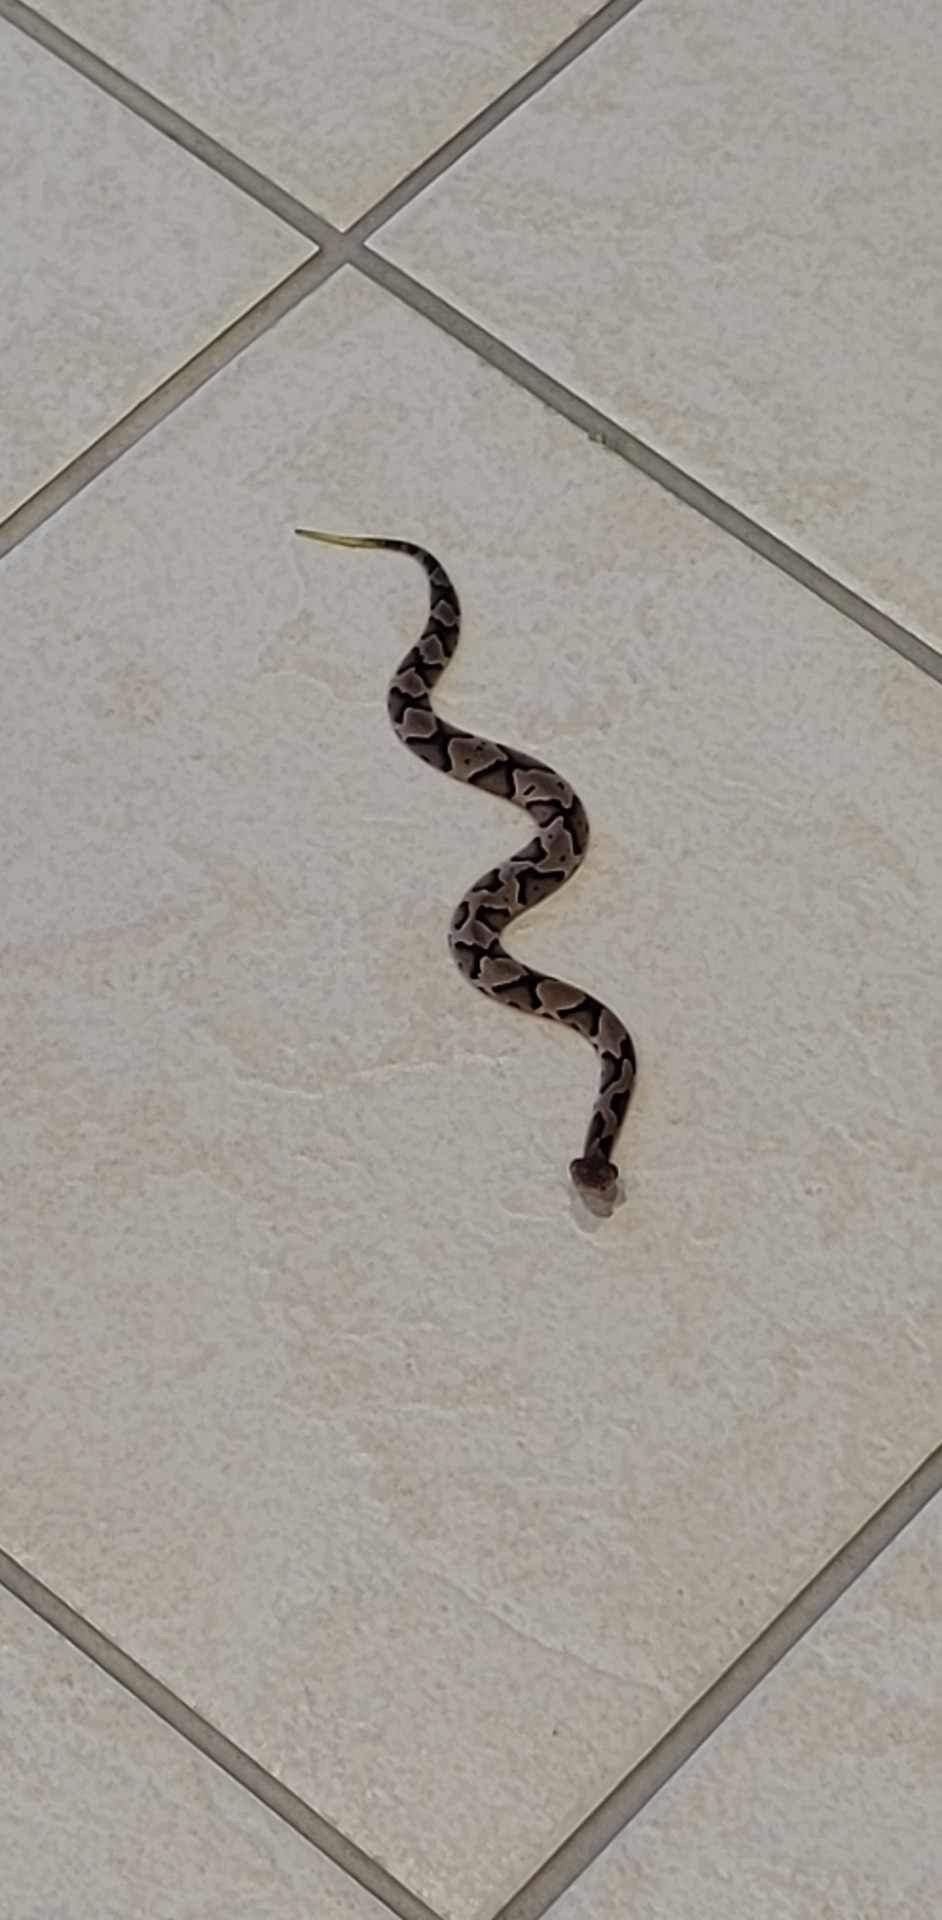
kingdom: Animalia
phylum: Chordata
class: Squamata
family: Viperidae
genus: Agkistrodon
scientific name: Agkistrodon contortrix
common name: Northern copperhead
